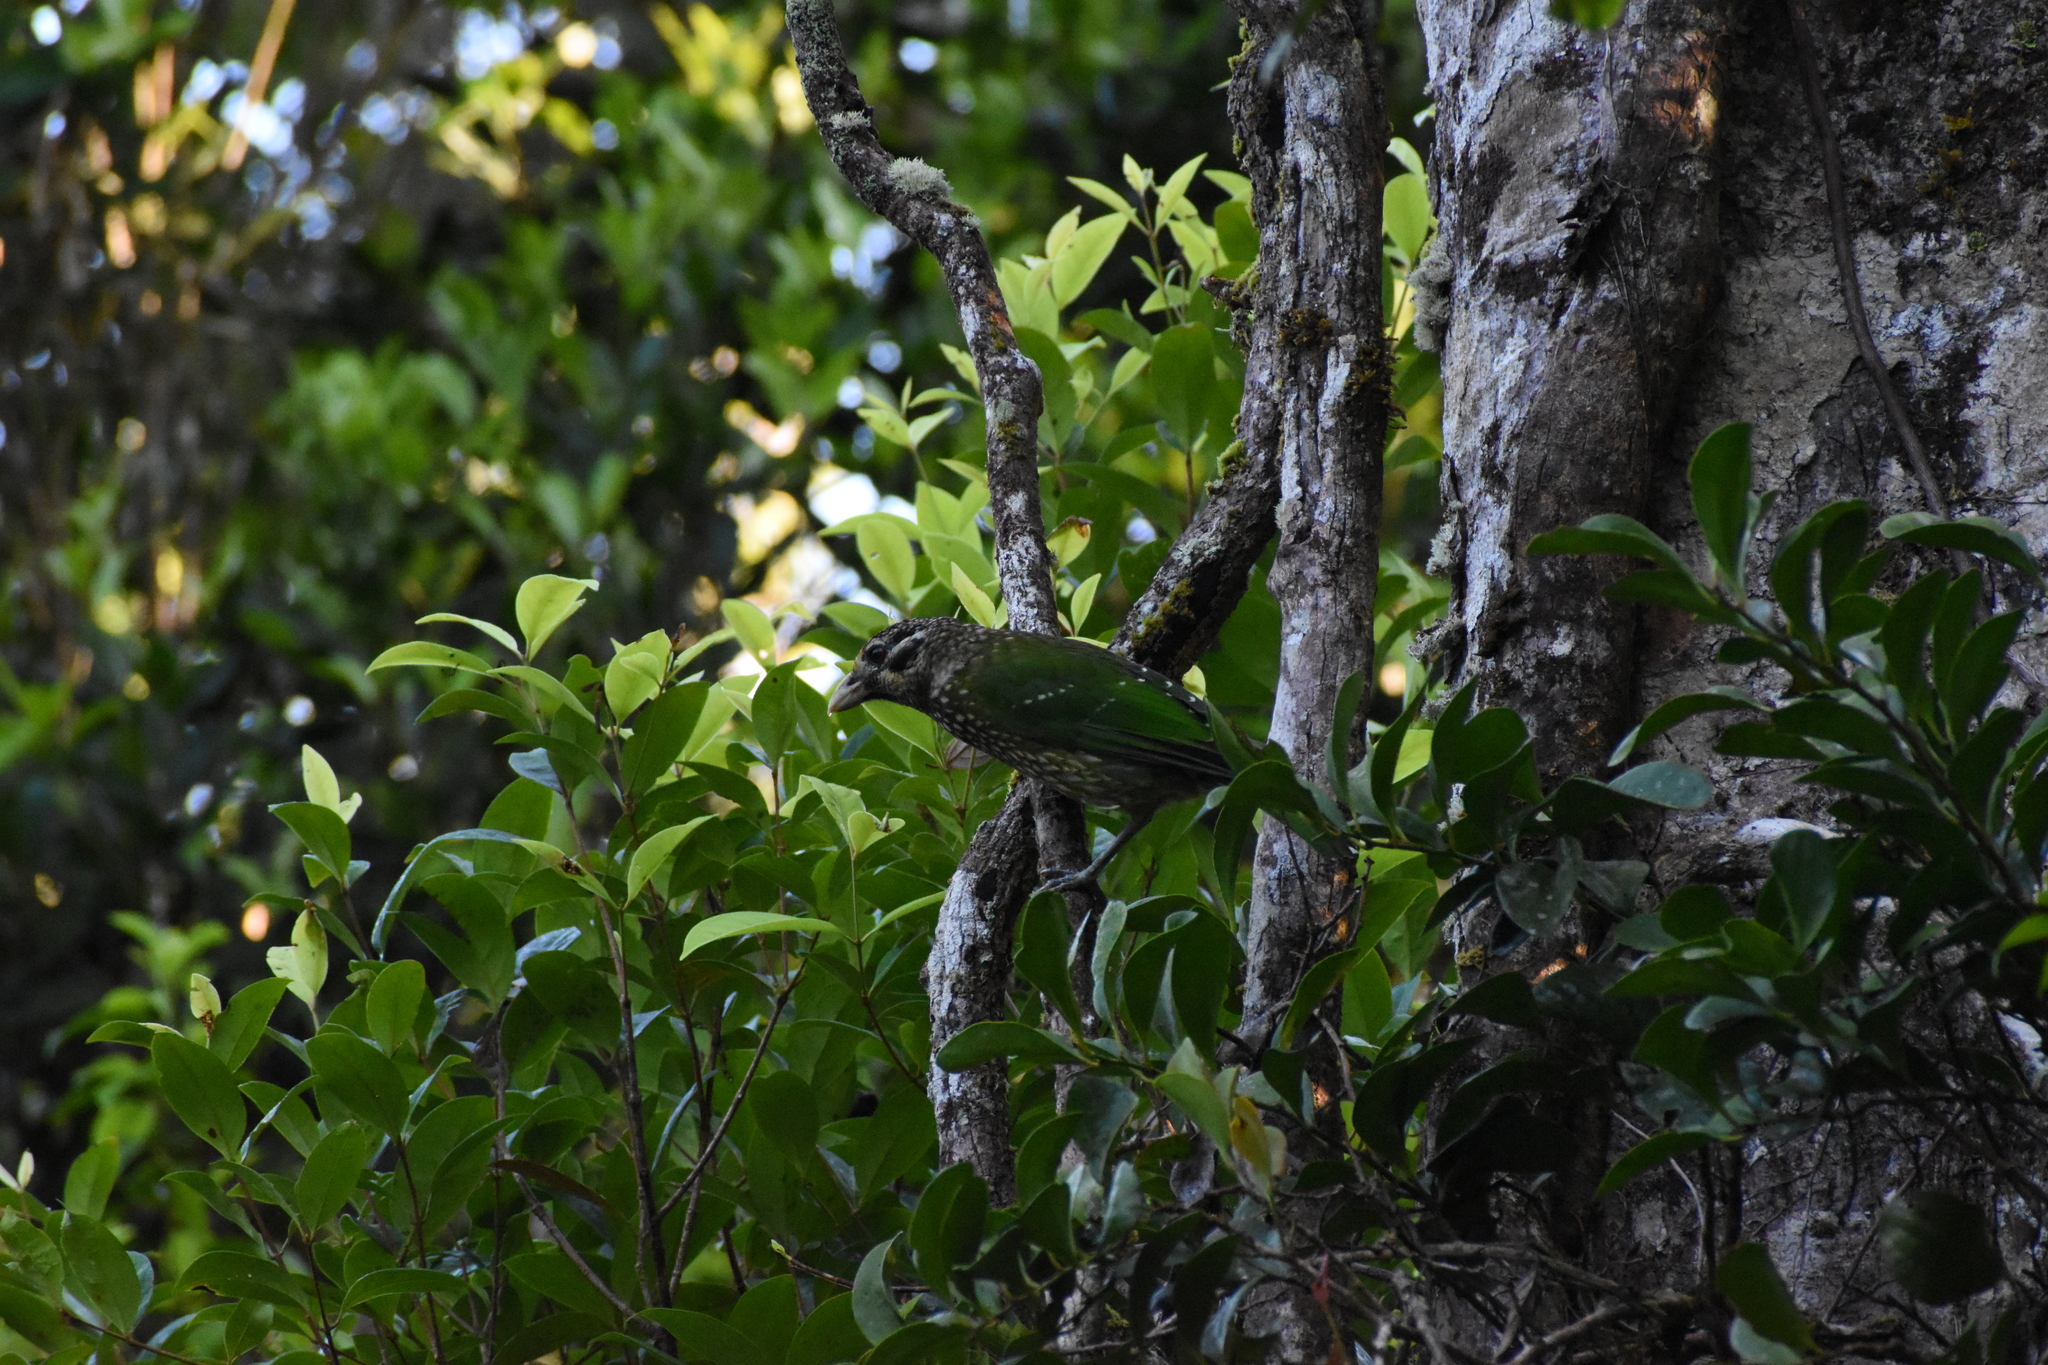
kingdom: Animalia
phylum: Chordata
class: Aves
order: Passeriformes
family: Ptilonorhynchidae
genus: Ailuroedus
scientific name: Ailuroedus maculosus
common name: Spotted catbird
